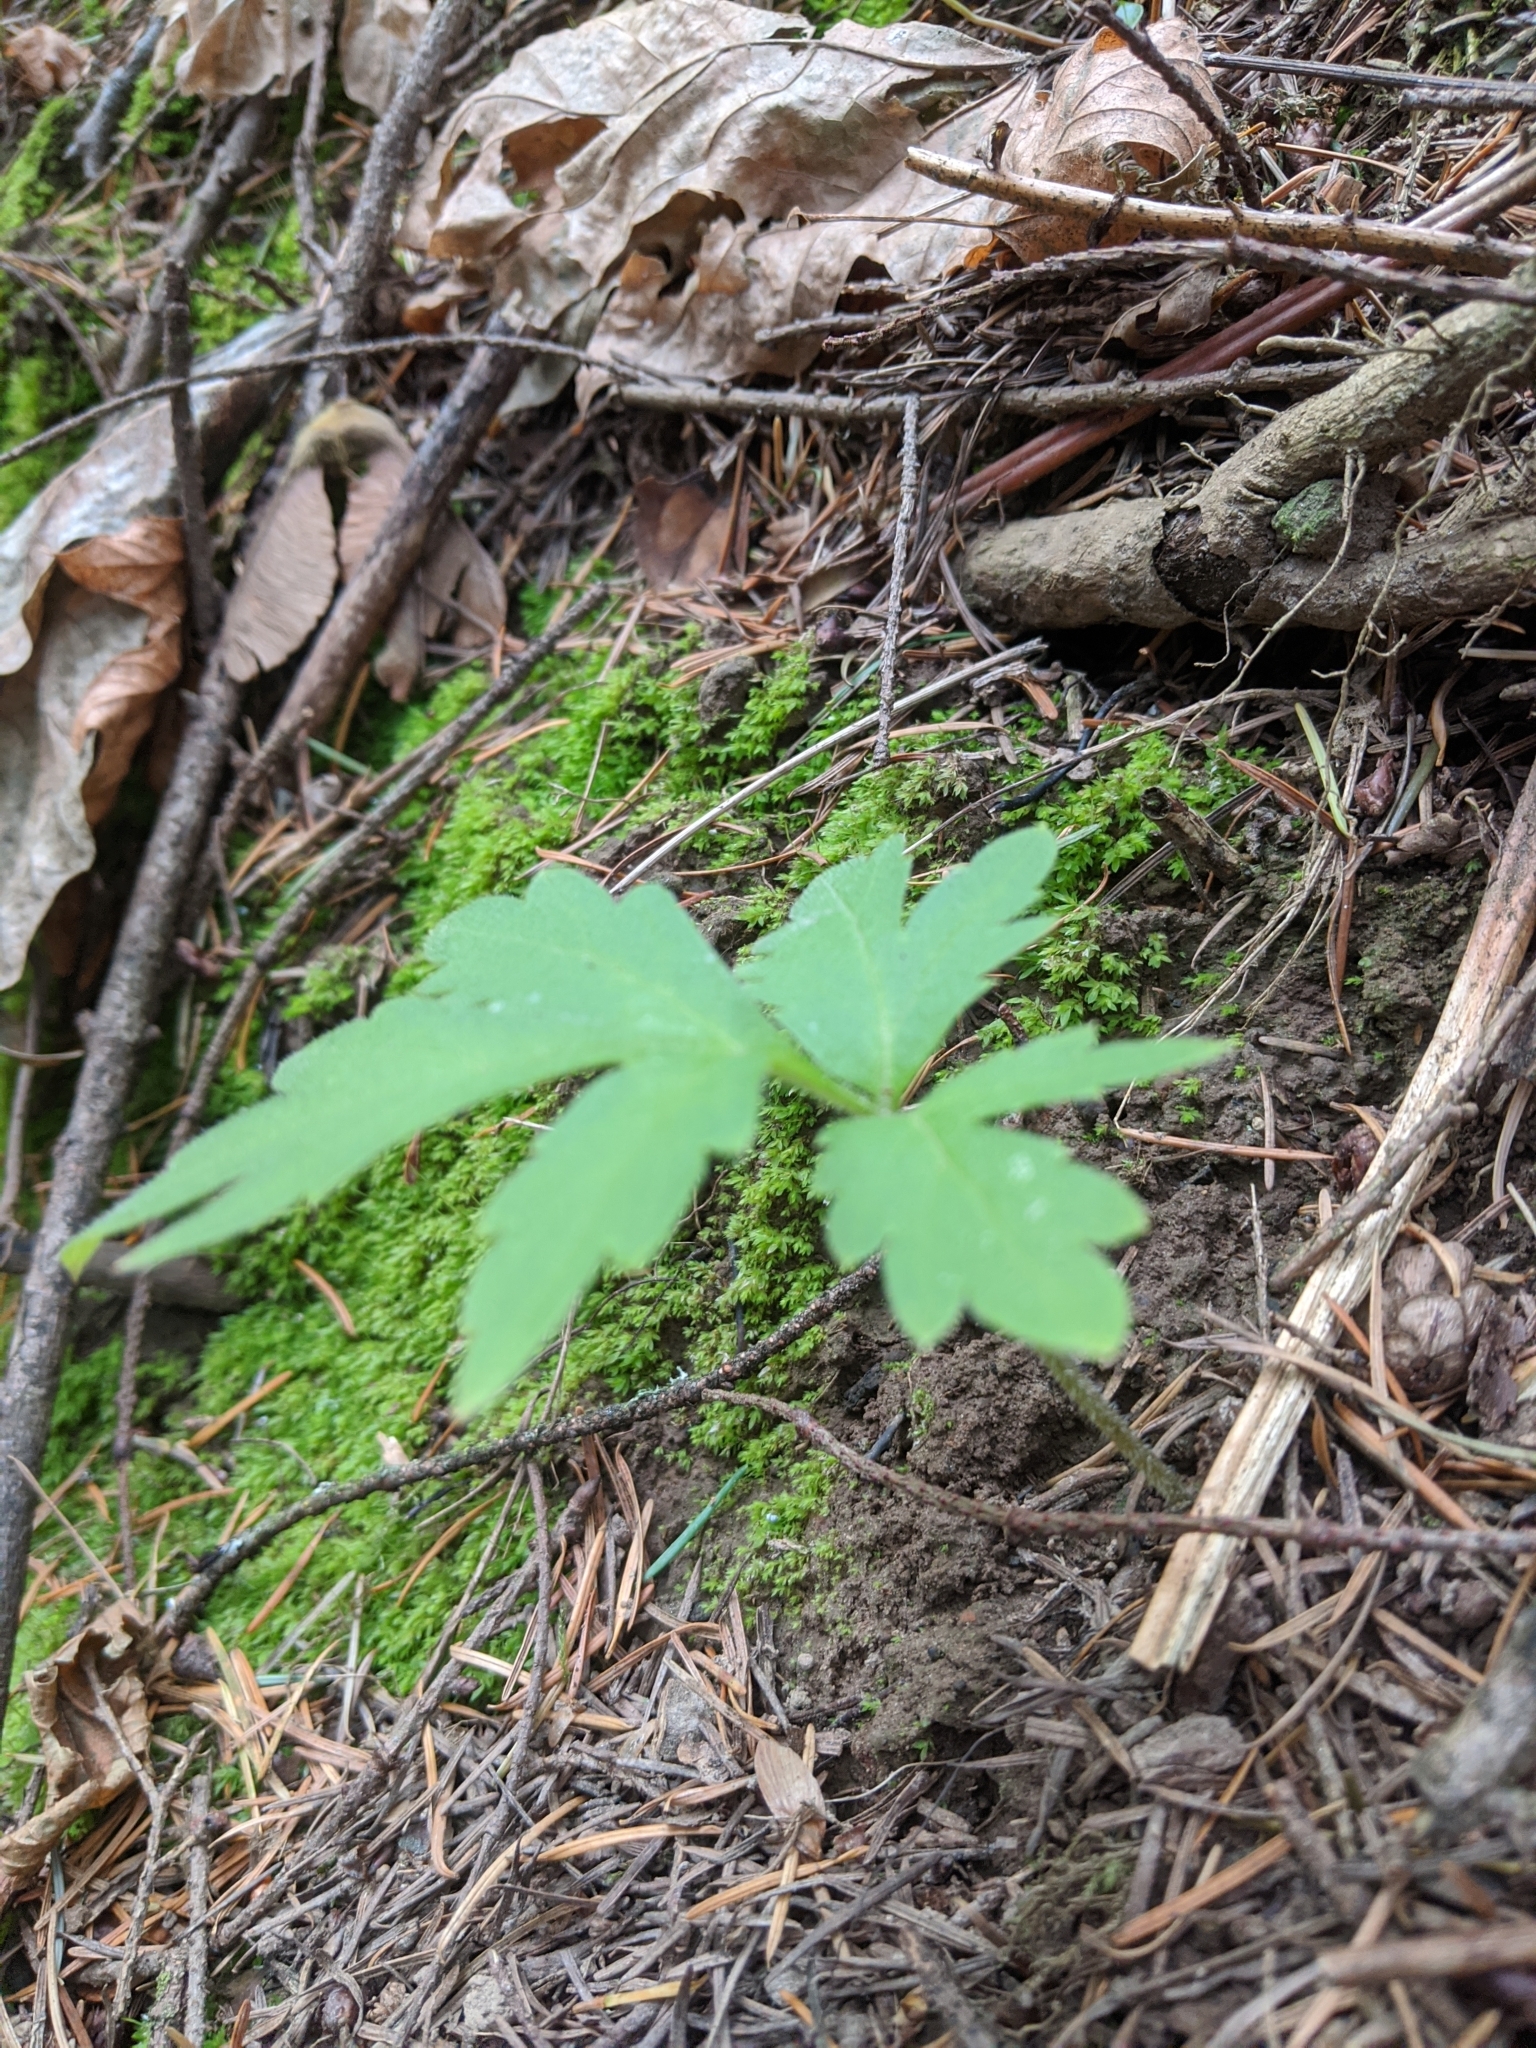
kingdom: Plantae
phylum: Tracheophyta
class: Magnoliopsida
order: Boraginales
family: Hydrophyllaceae
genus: Hydrophyllum
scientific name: Hydrophyllum tenuipes
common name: Pacific waterleaf
